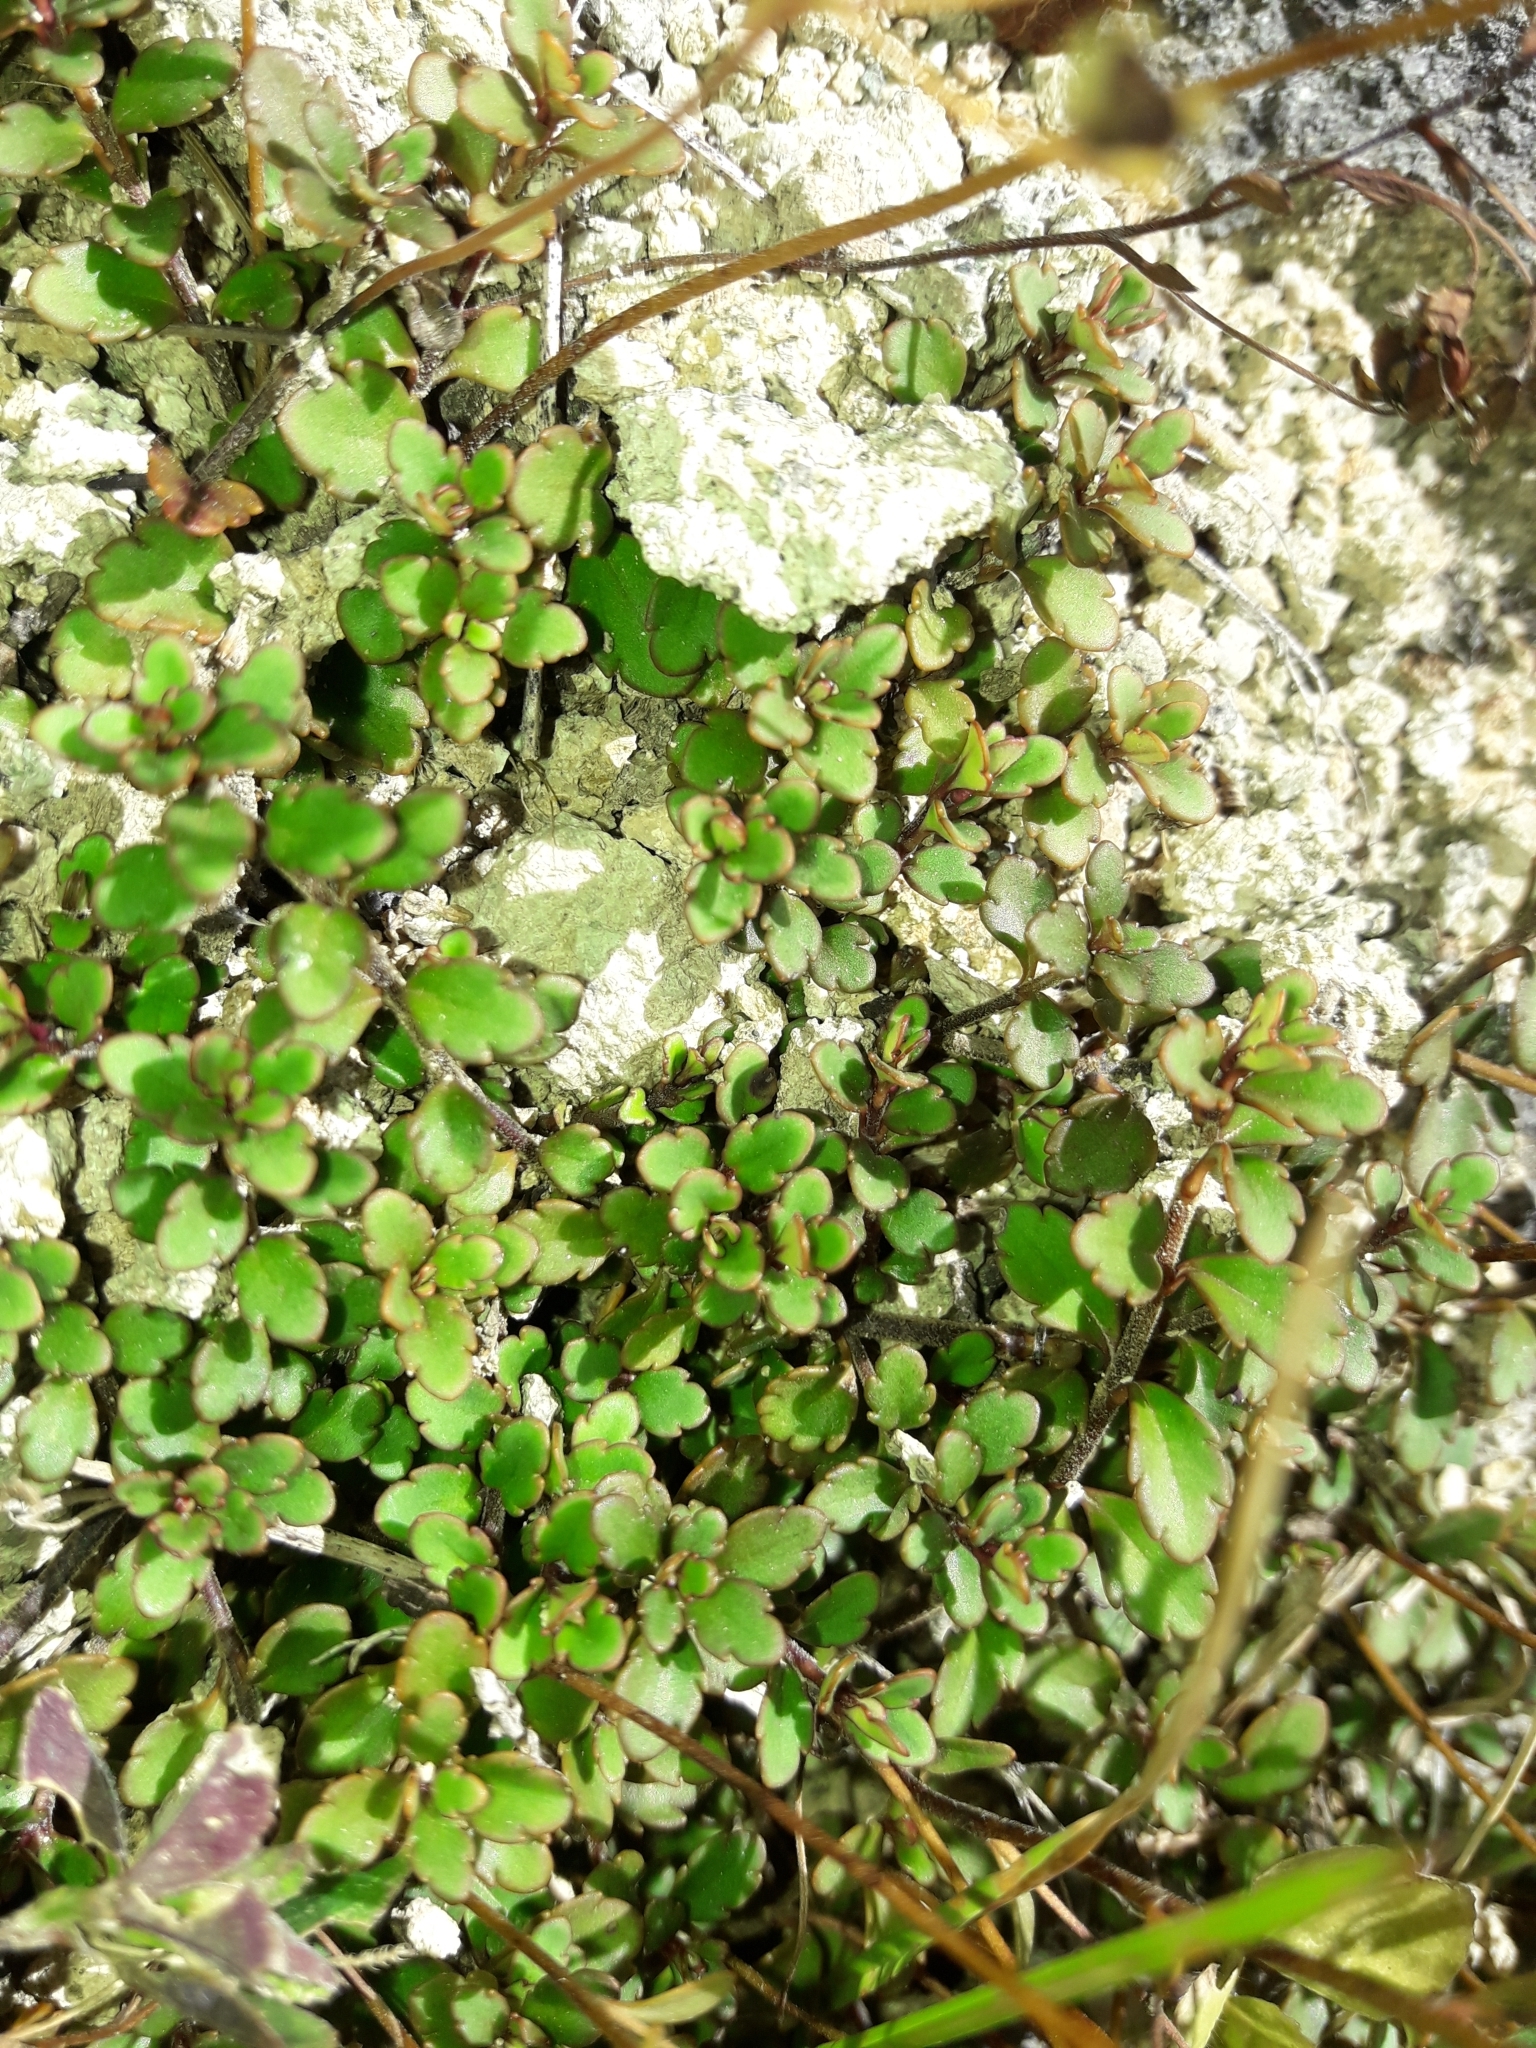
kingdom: Plantae
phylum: Tracheophyta
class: Magnoliopsida
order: Lamiales
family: Plantaginaceae
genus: Veronica
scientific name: Veronica lyallii
